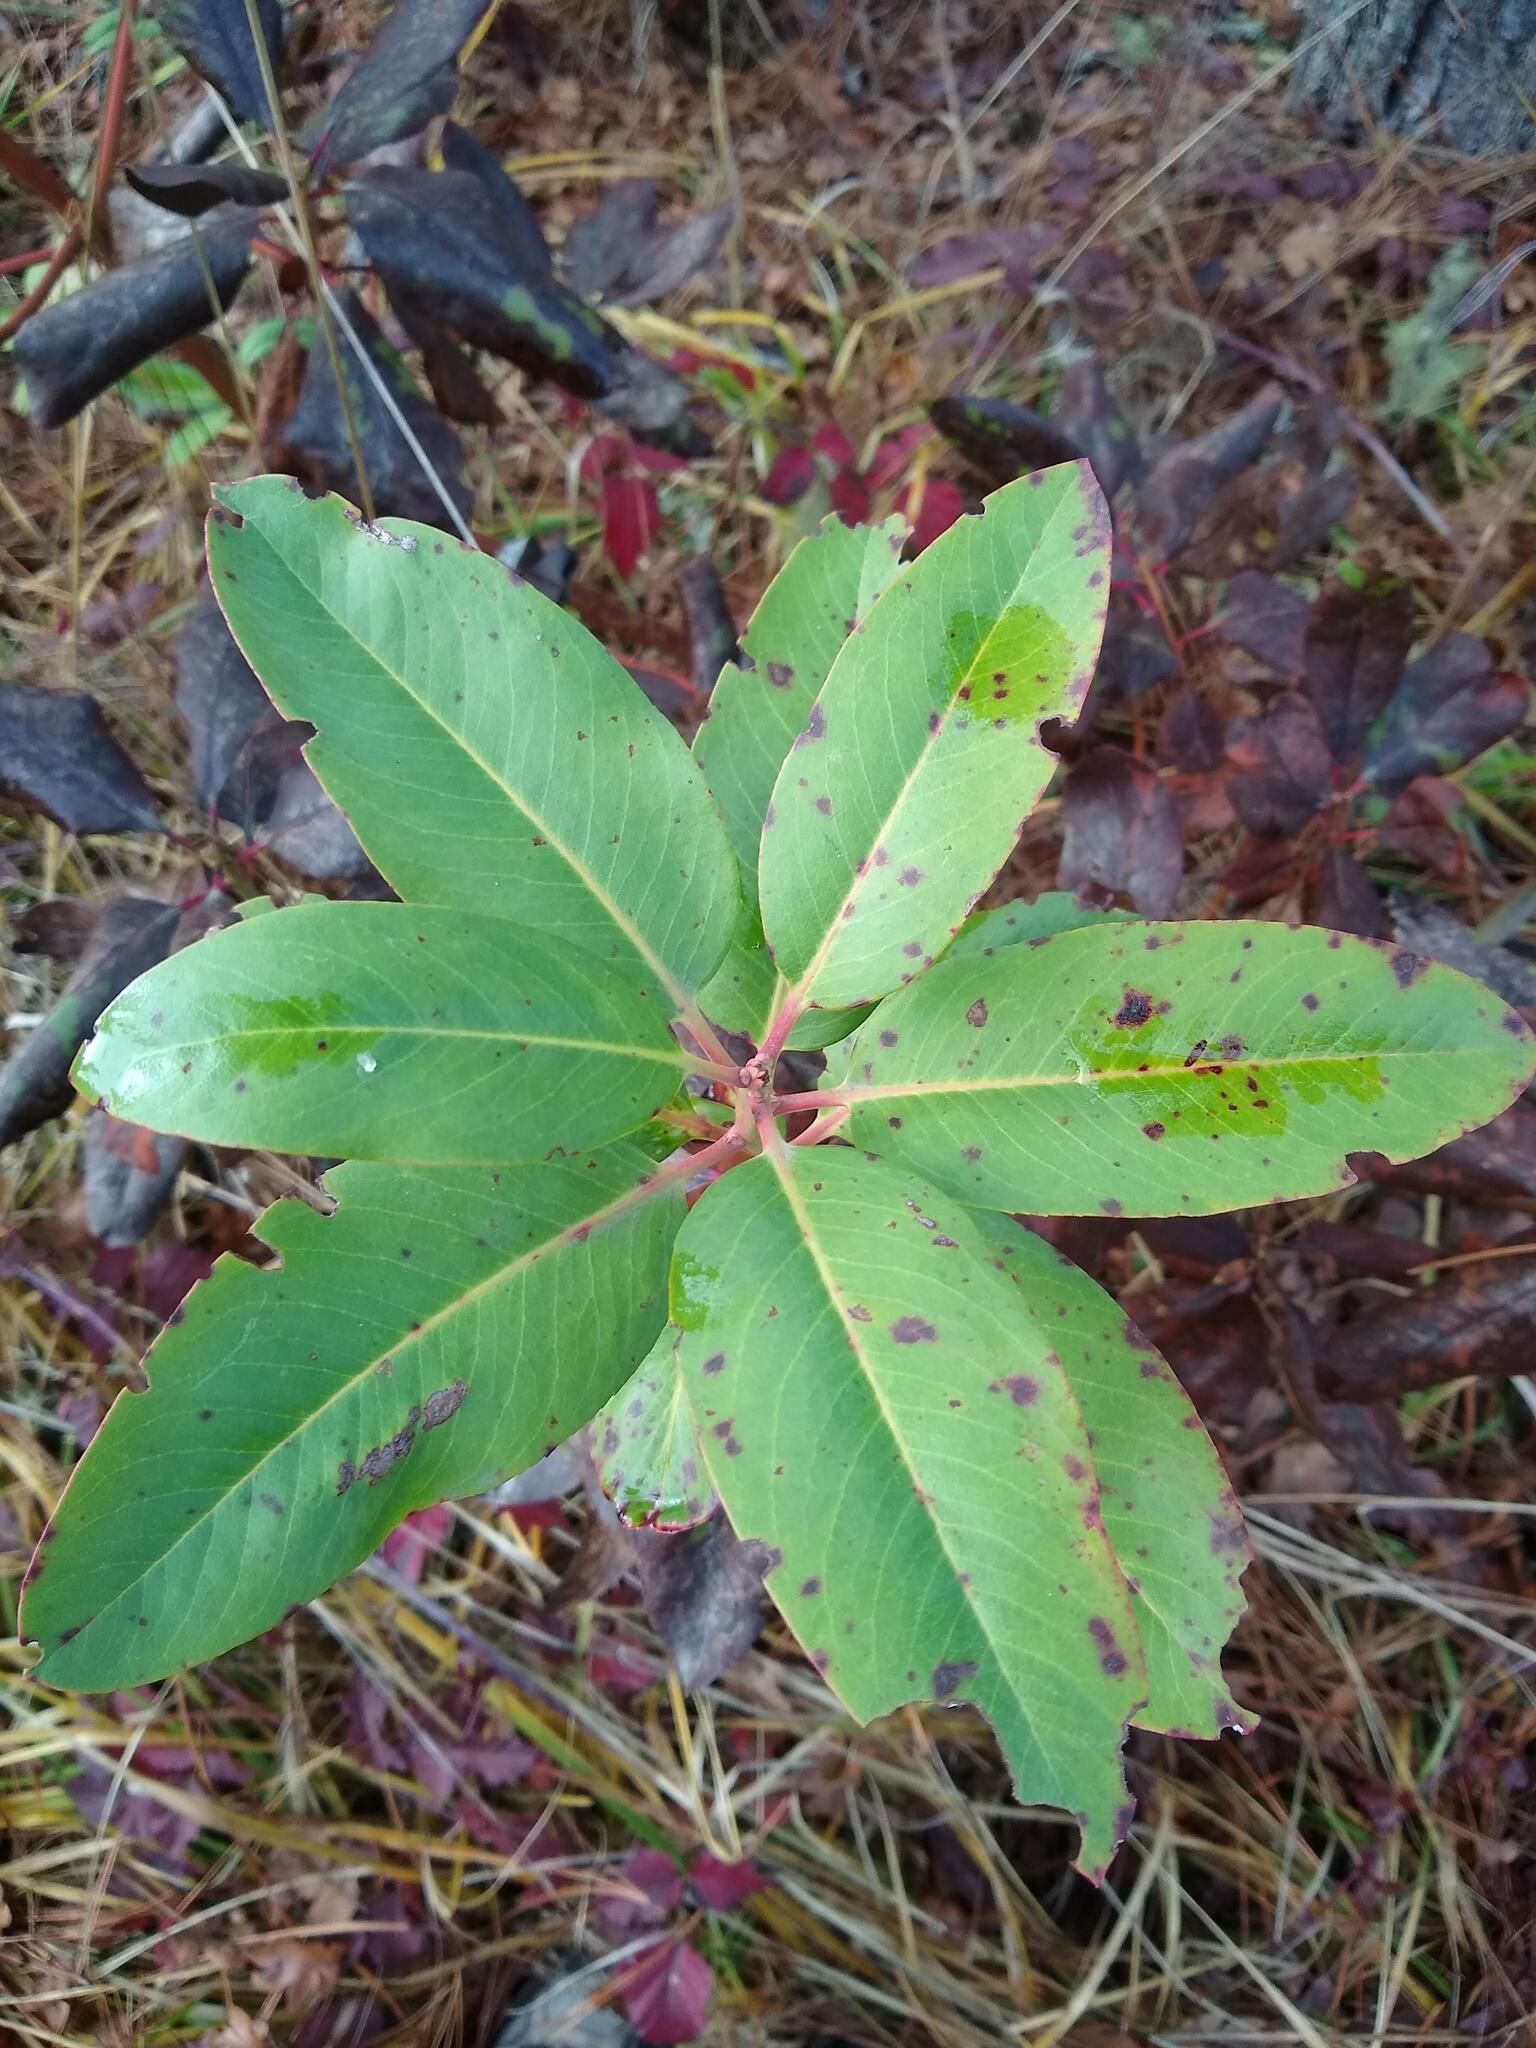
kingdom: Plantae
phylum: Tracheophyta
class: Magnoliopsida
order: Ericales
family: Ericaceae
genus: Arbutus
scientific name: Arbutus menziesii
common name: Pacific madrone
